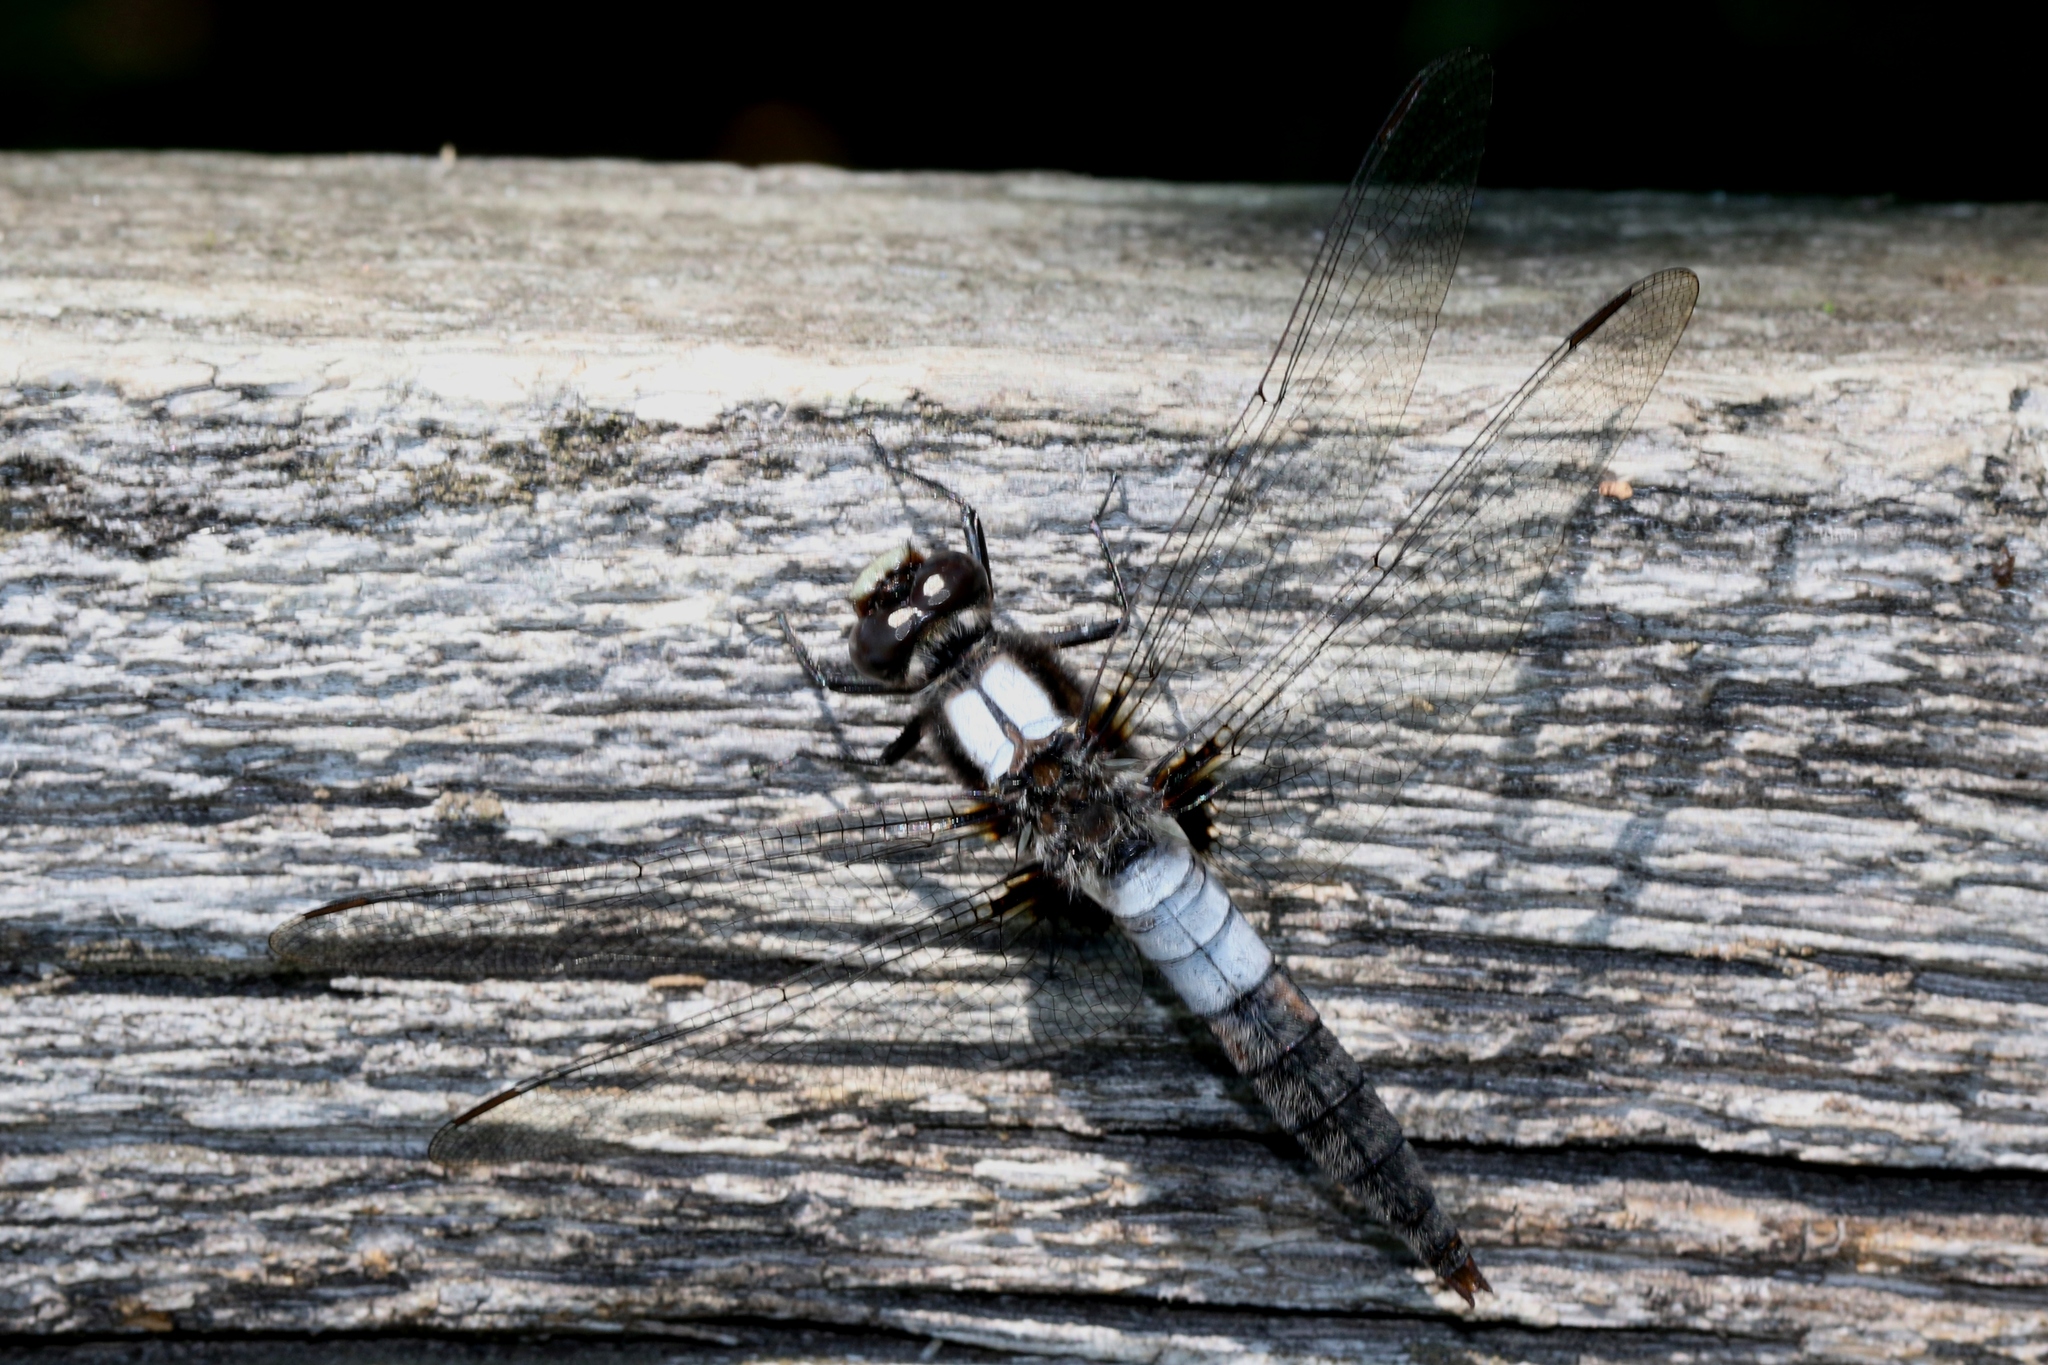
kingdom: Animalia
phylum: Arthropoda
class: Insecta
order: Odonata
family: Libellulidae
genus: Ladona
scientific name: Ladona julia
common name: Chalk-fronted corporal
